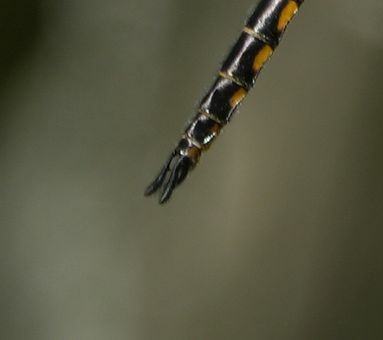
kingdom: Animalia
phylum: Arthropoda
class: Insecta
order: Odonata
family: Corduliidae
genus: Epitheca
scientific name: Epitheca spinigera
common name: Spiny baskettail
